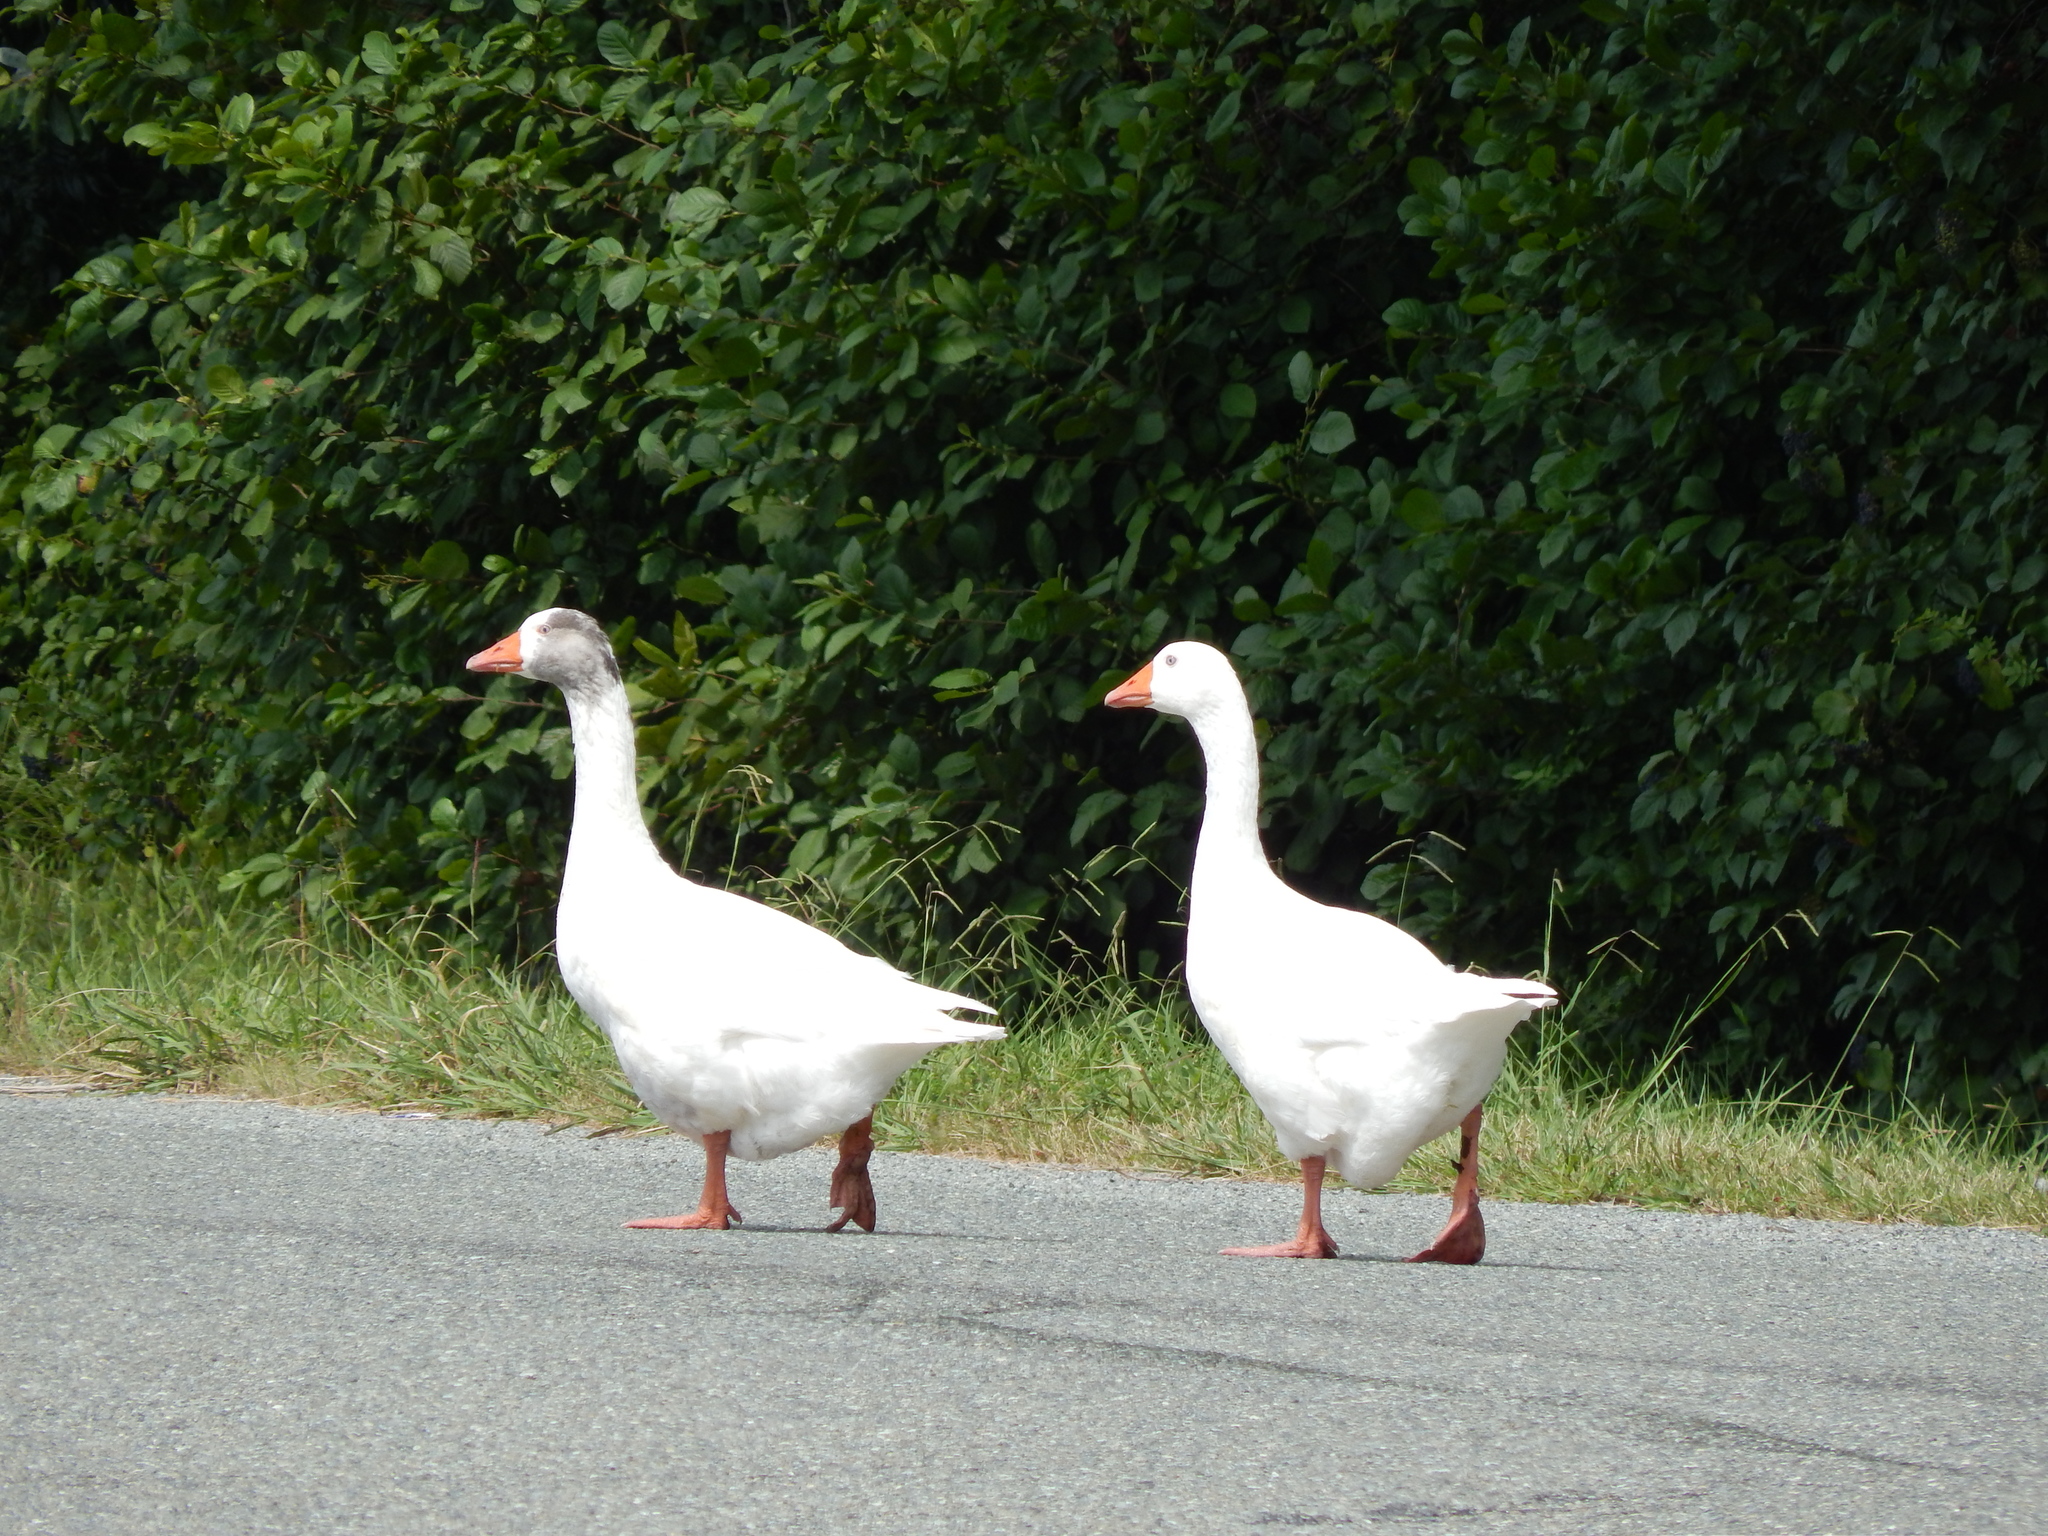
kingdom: Animalia
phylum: Chordata
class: Aves
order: Anseriformes
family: Anatidae
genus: Anser
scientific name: Anser anser
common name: Greylag goose
